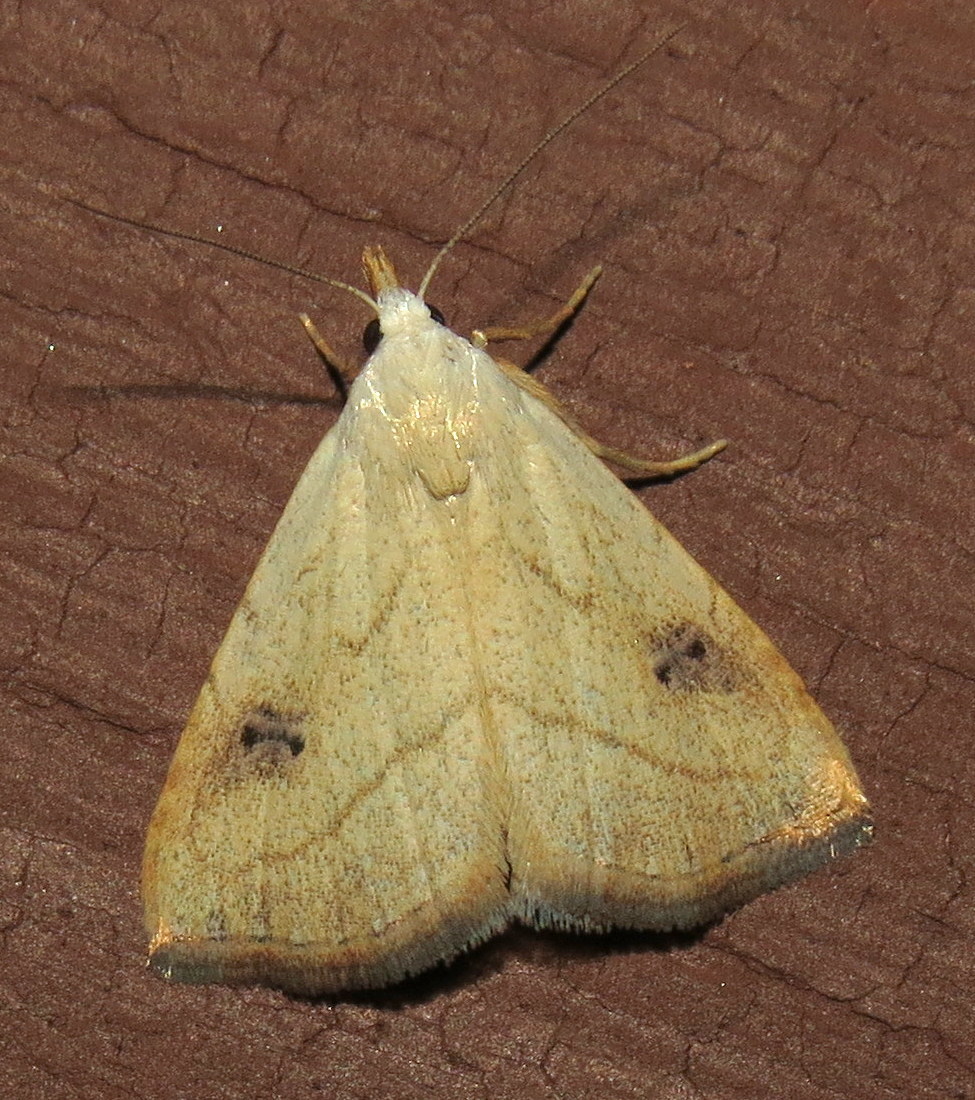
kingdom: Animalia
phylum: Arthropoda
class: Insecta
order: Lepidoptera
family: Erebidae
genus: Rivula
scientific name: Rivula propinqualis
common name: Spotted grass moth
